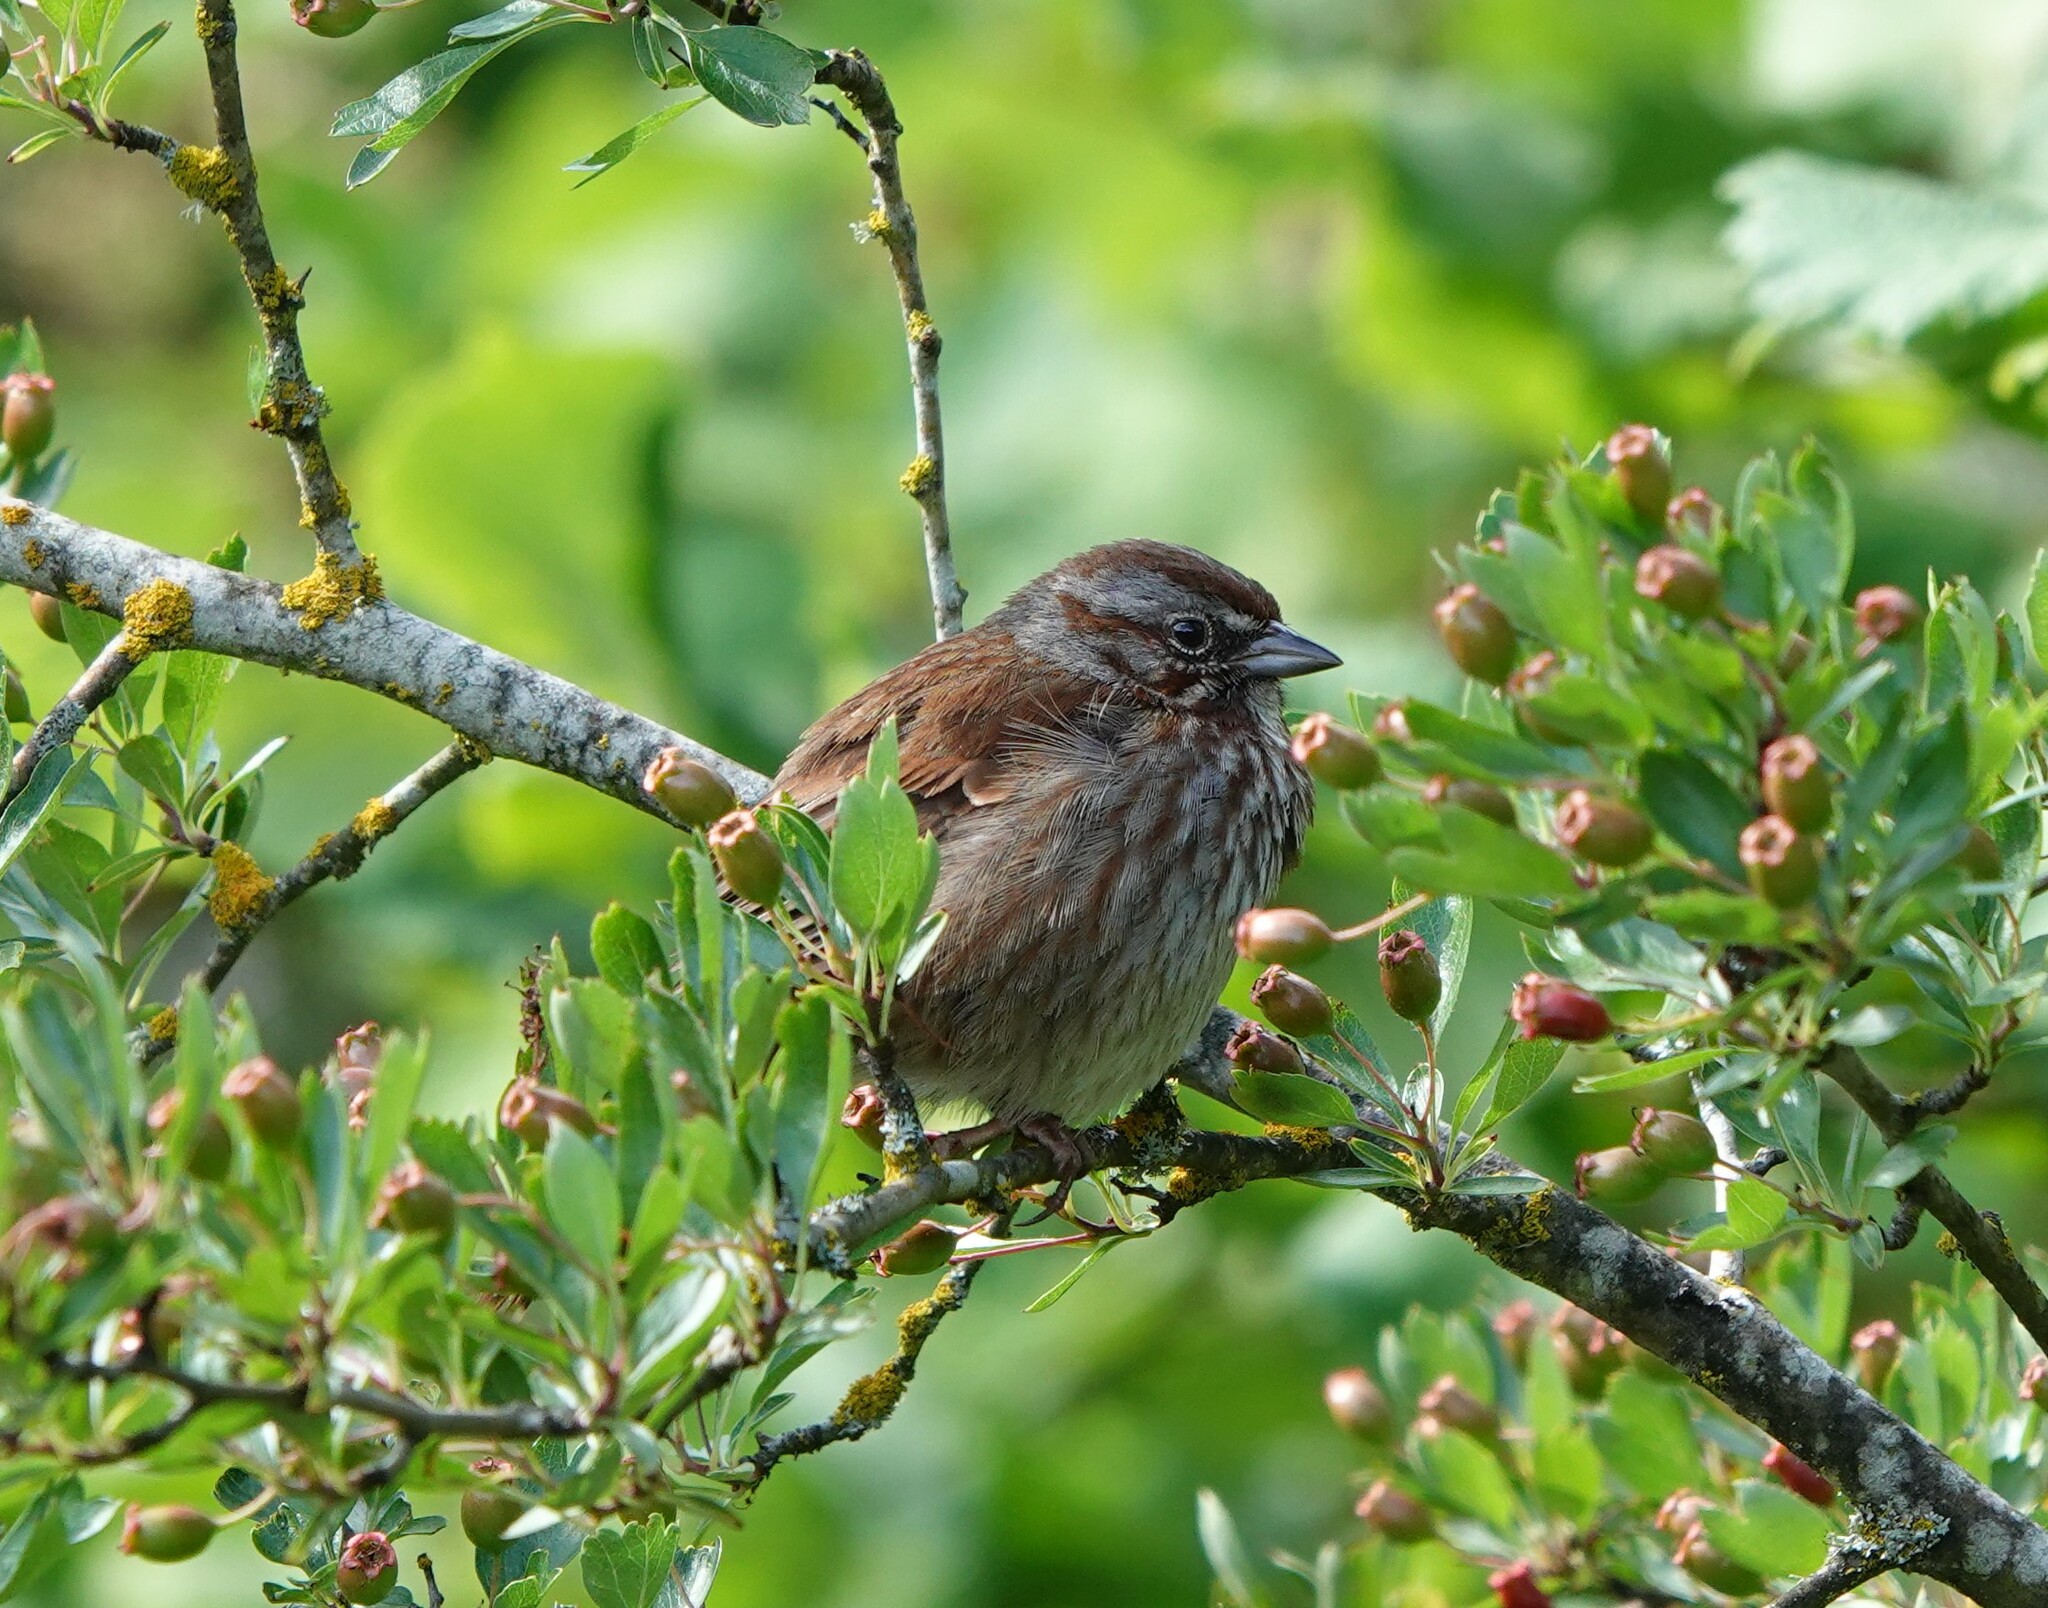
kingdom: Animalia
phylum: Chordata
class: Aves
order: Passeriformes
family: Passerellidae
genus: Melospiza
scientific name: Melospiza melodia
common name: Song sparrow
